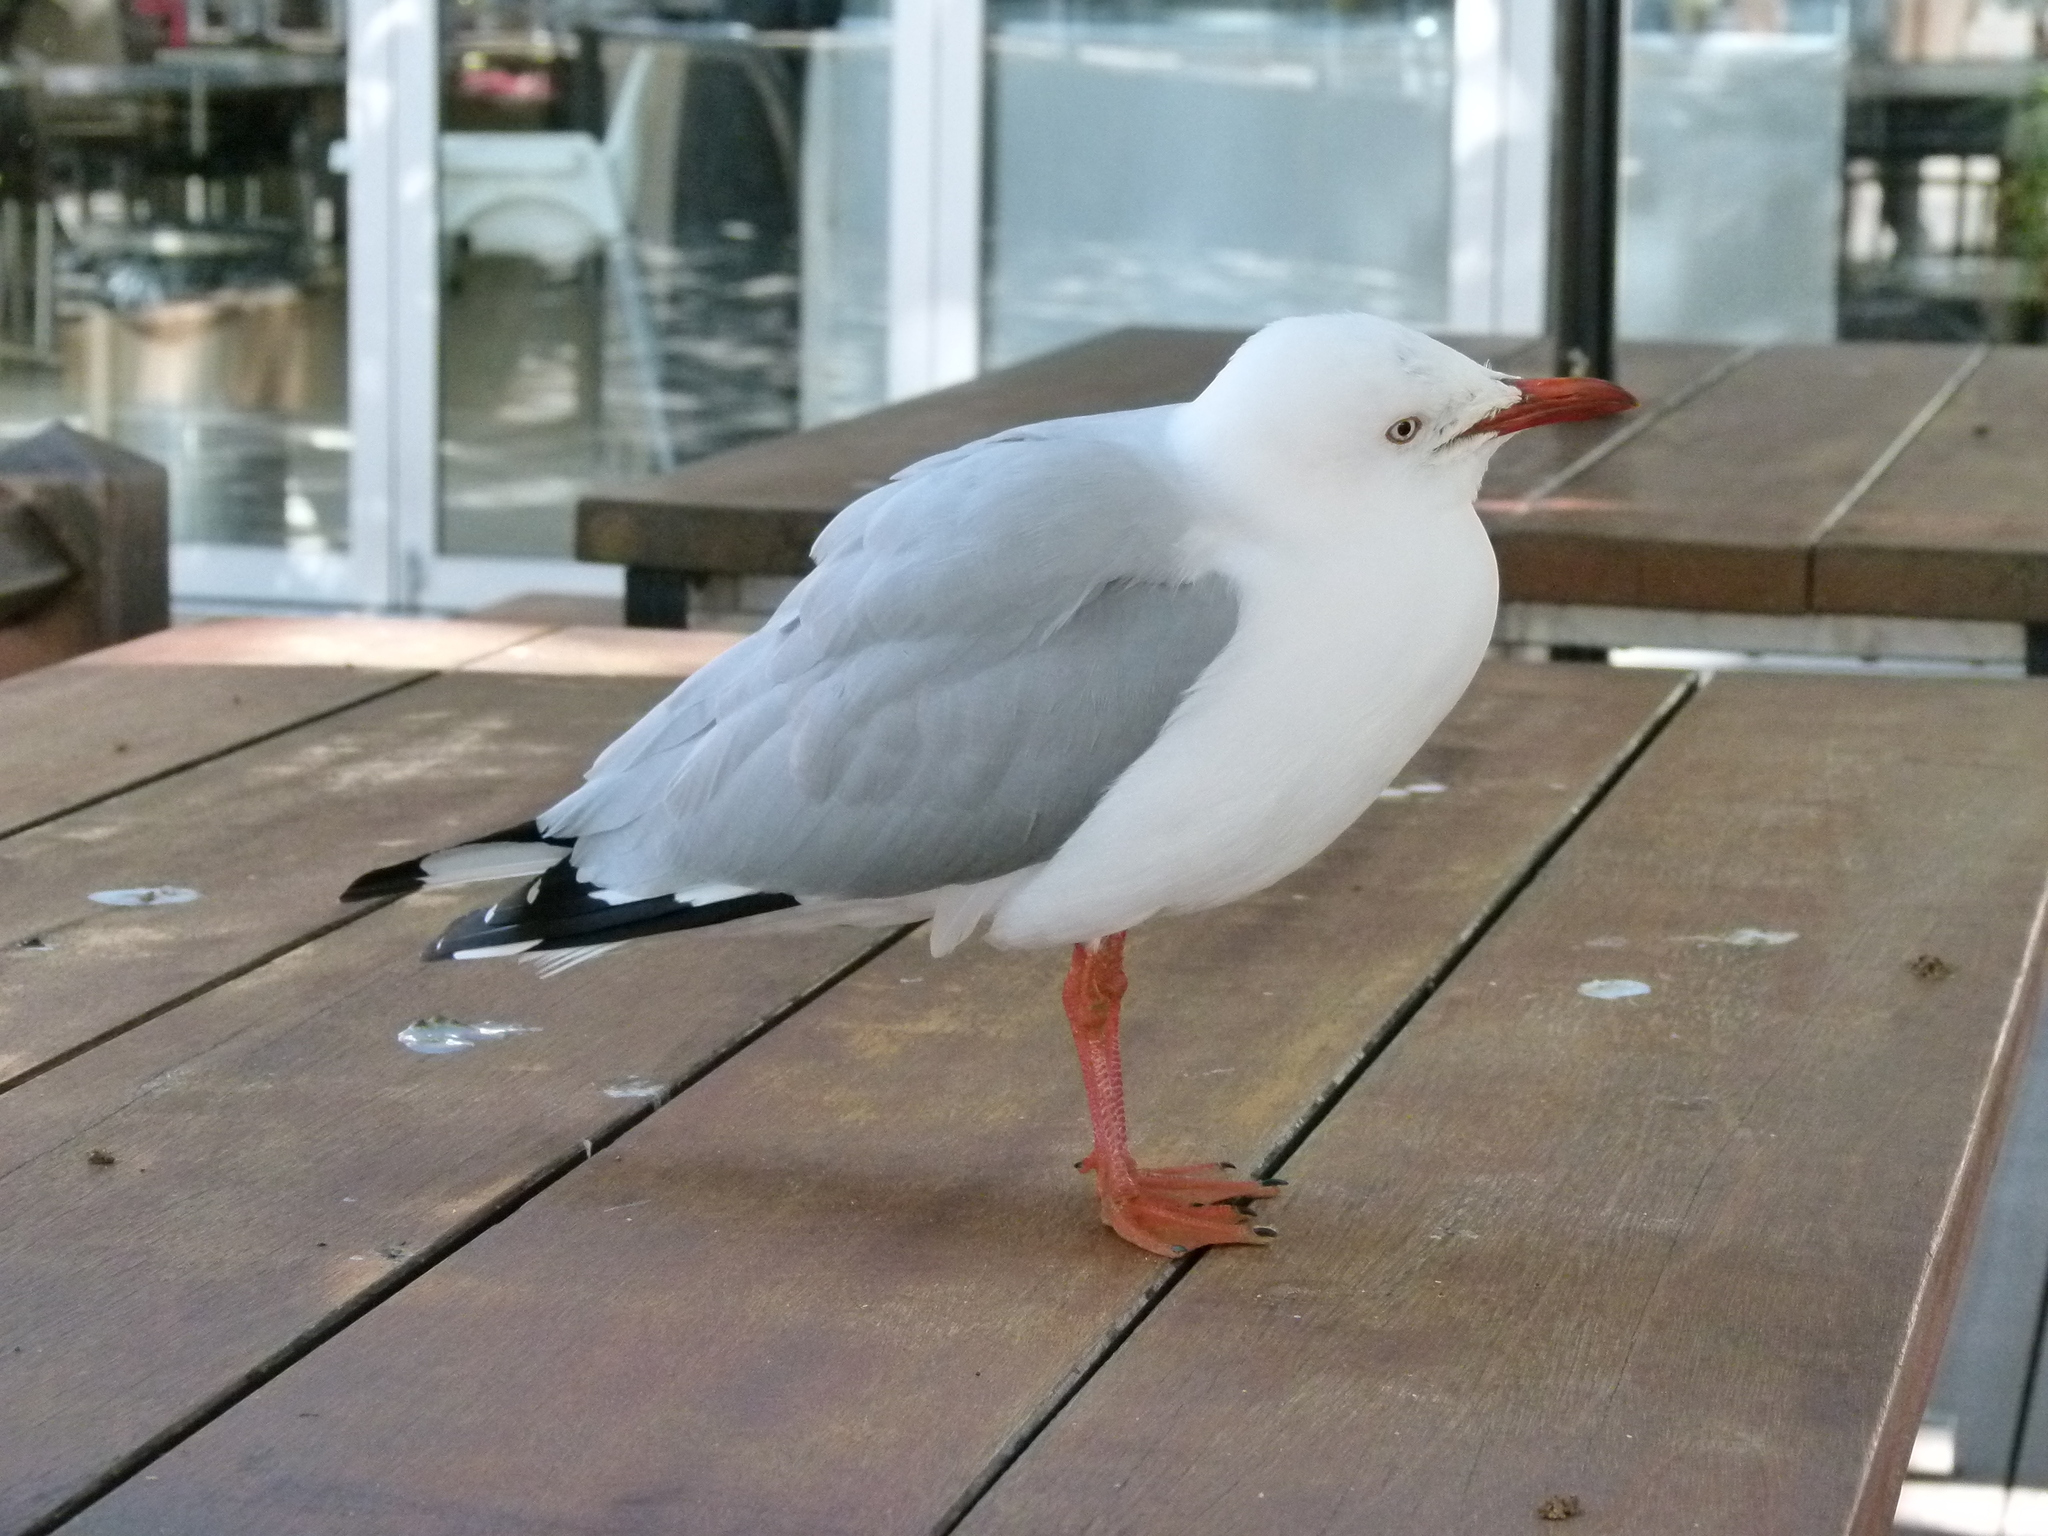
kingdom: Animalia
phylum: Chordata
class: Aves
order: Charadriiformes
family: Laridae
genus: Chroicocephalus
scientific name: Chroicocephalus novaehollandiae
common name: Silver gull
